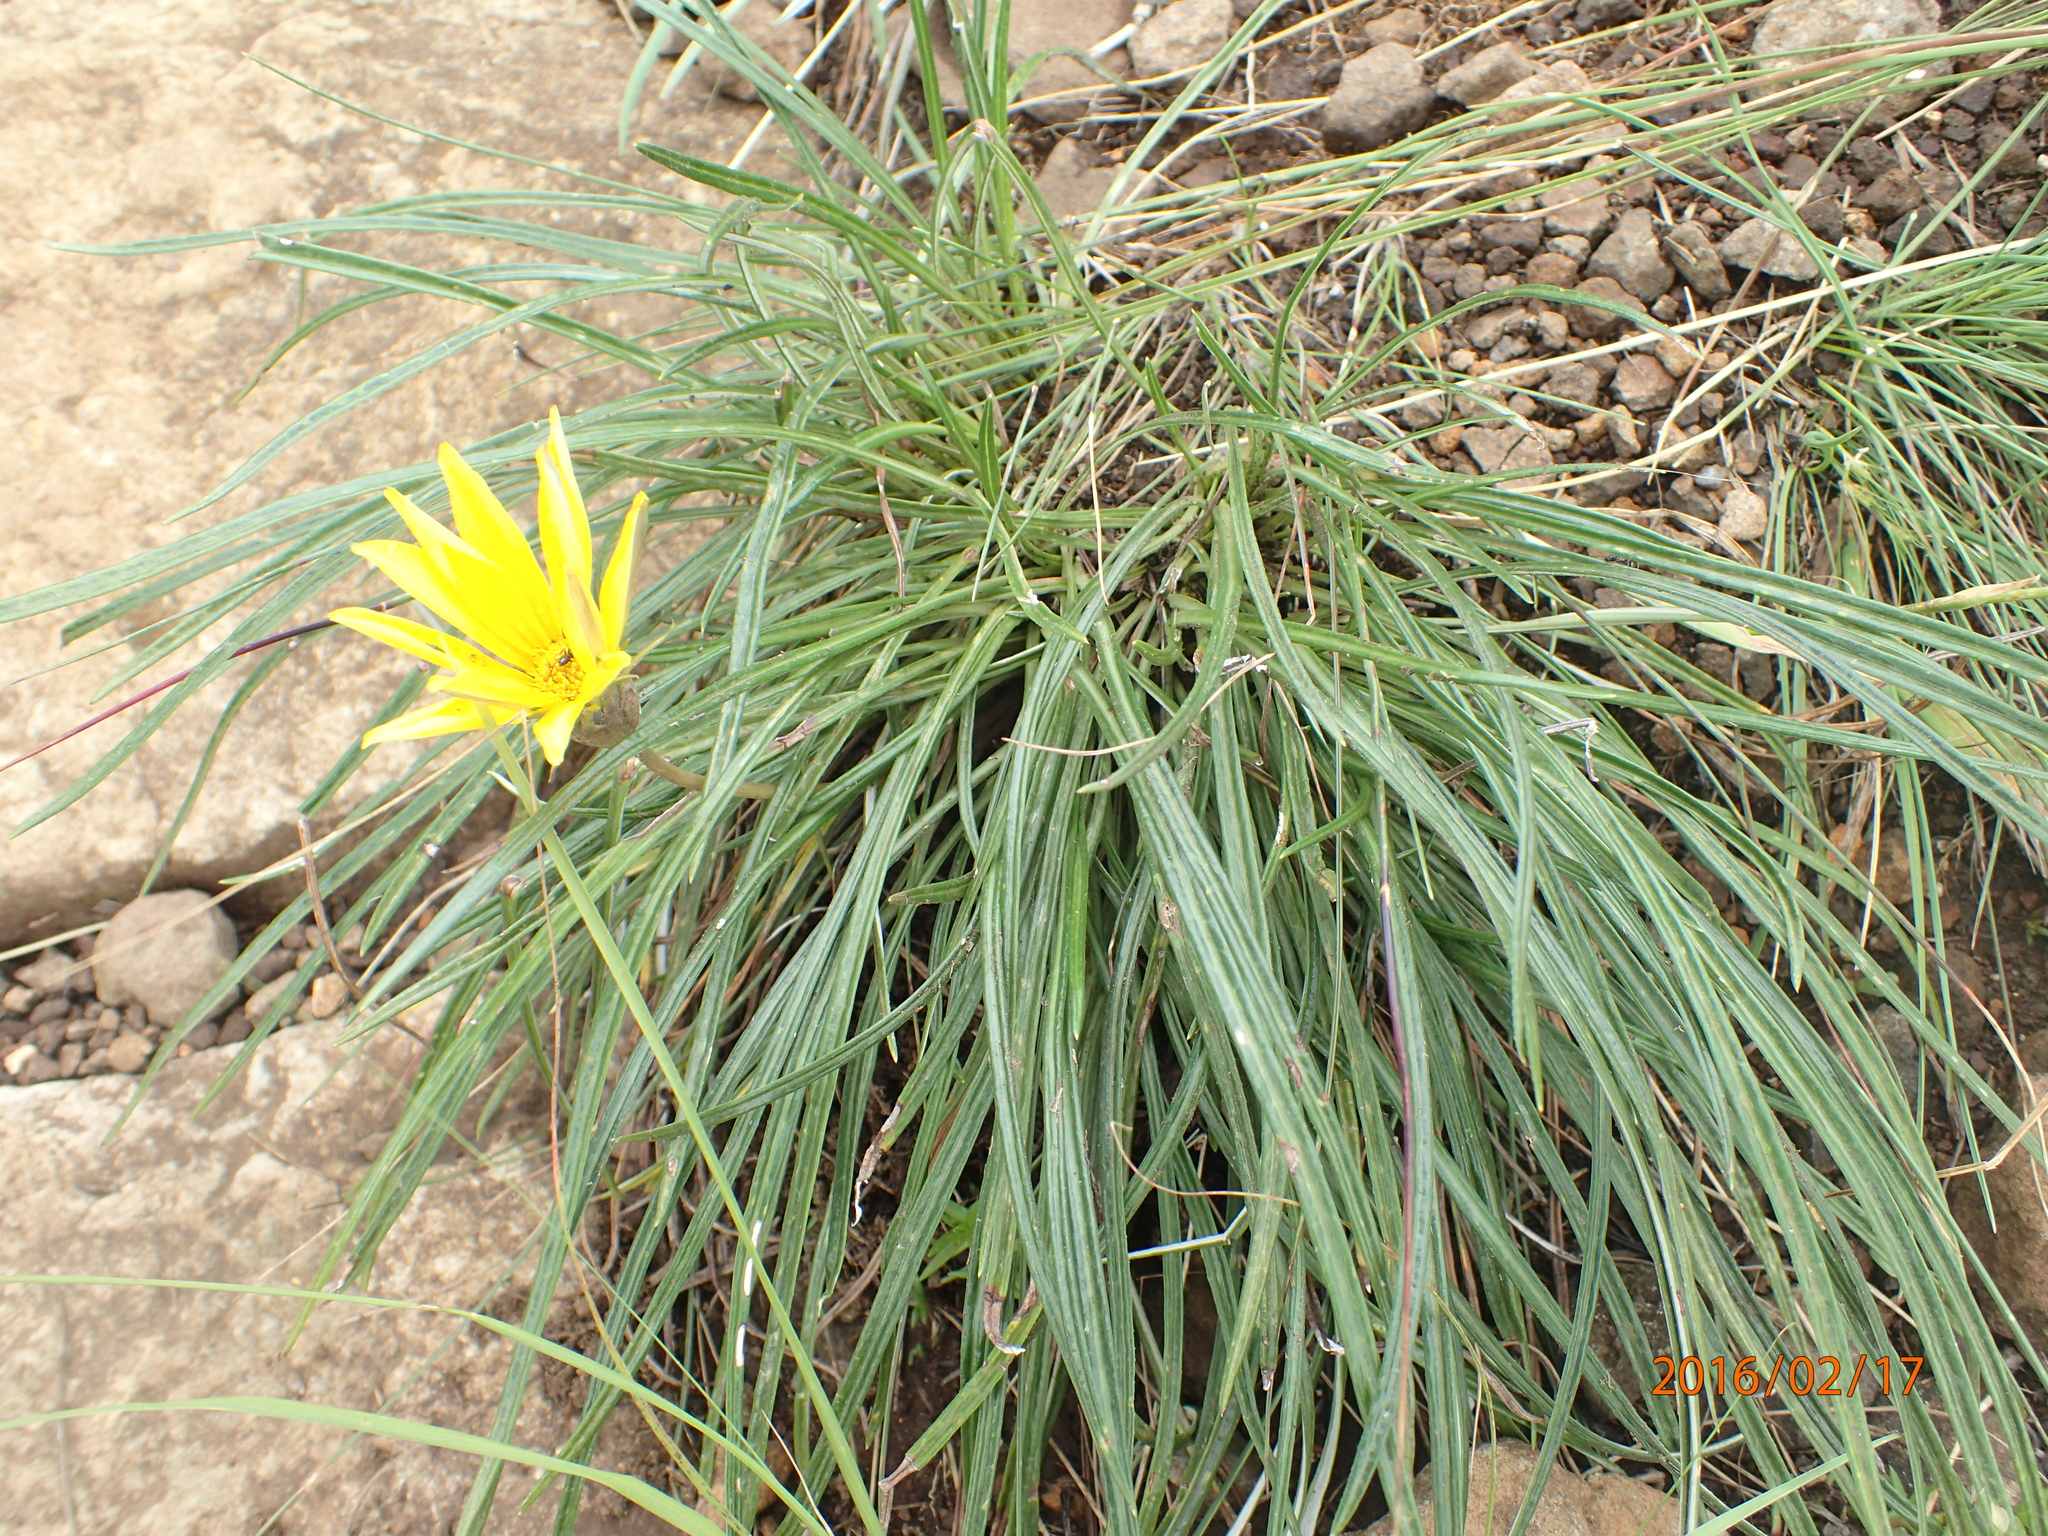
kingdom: Plantae
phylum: Tracheophyta
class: Magnoliopsida
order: Asterales
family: Asteraceae
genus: Gazania
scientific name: Gazania krebsiana
